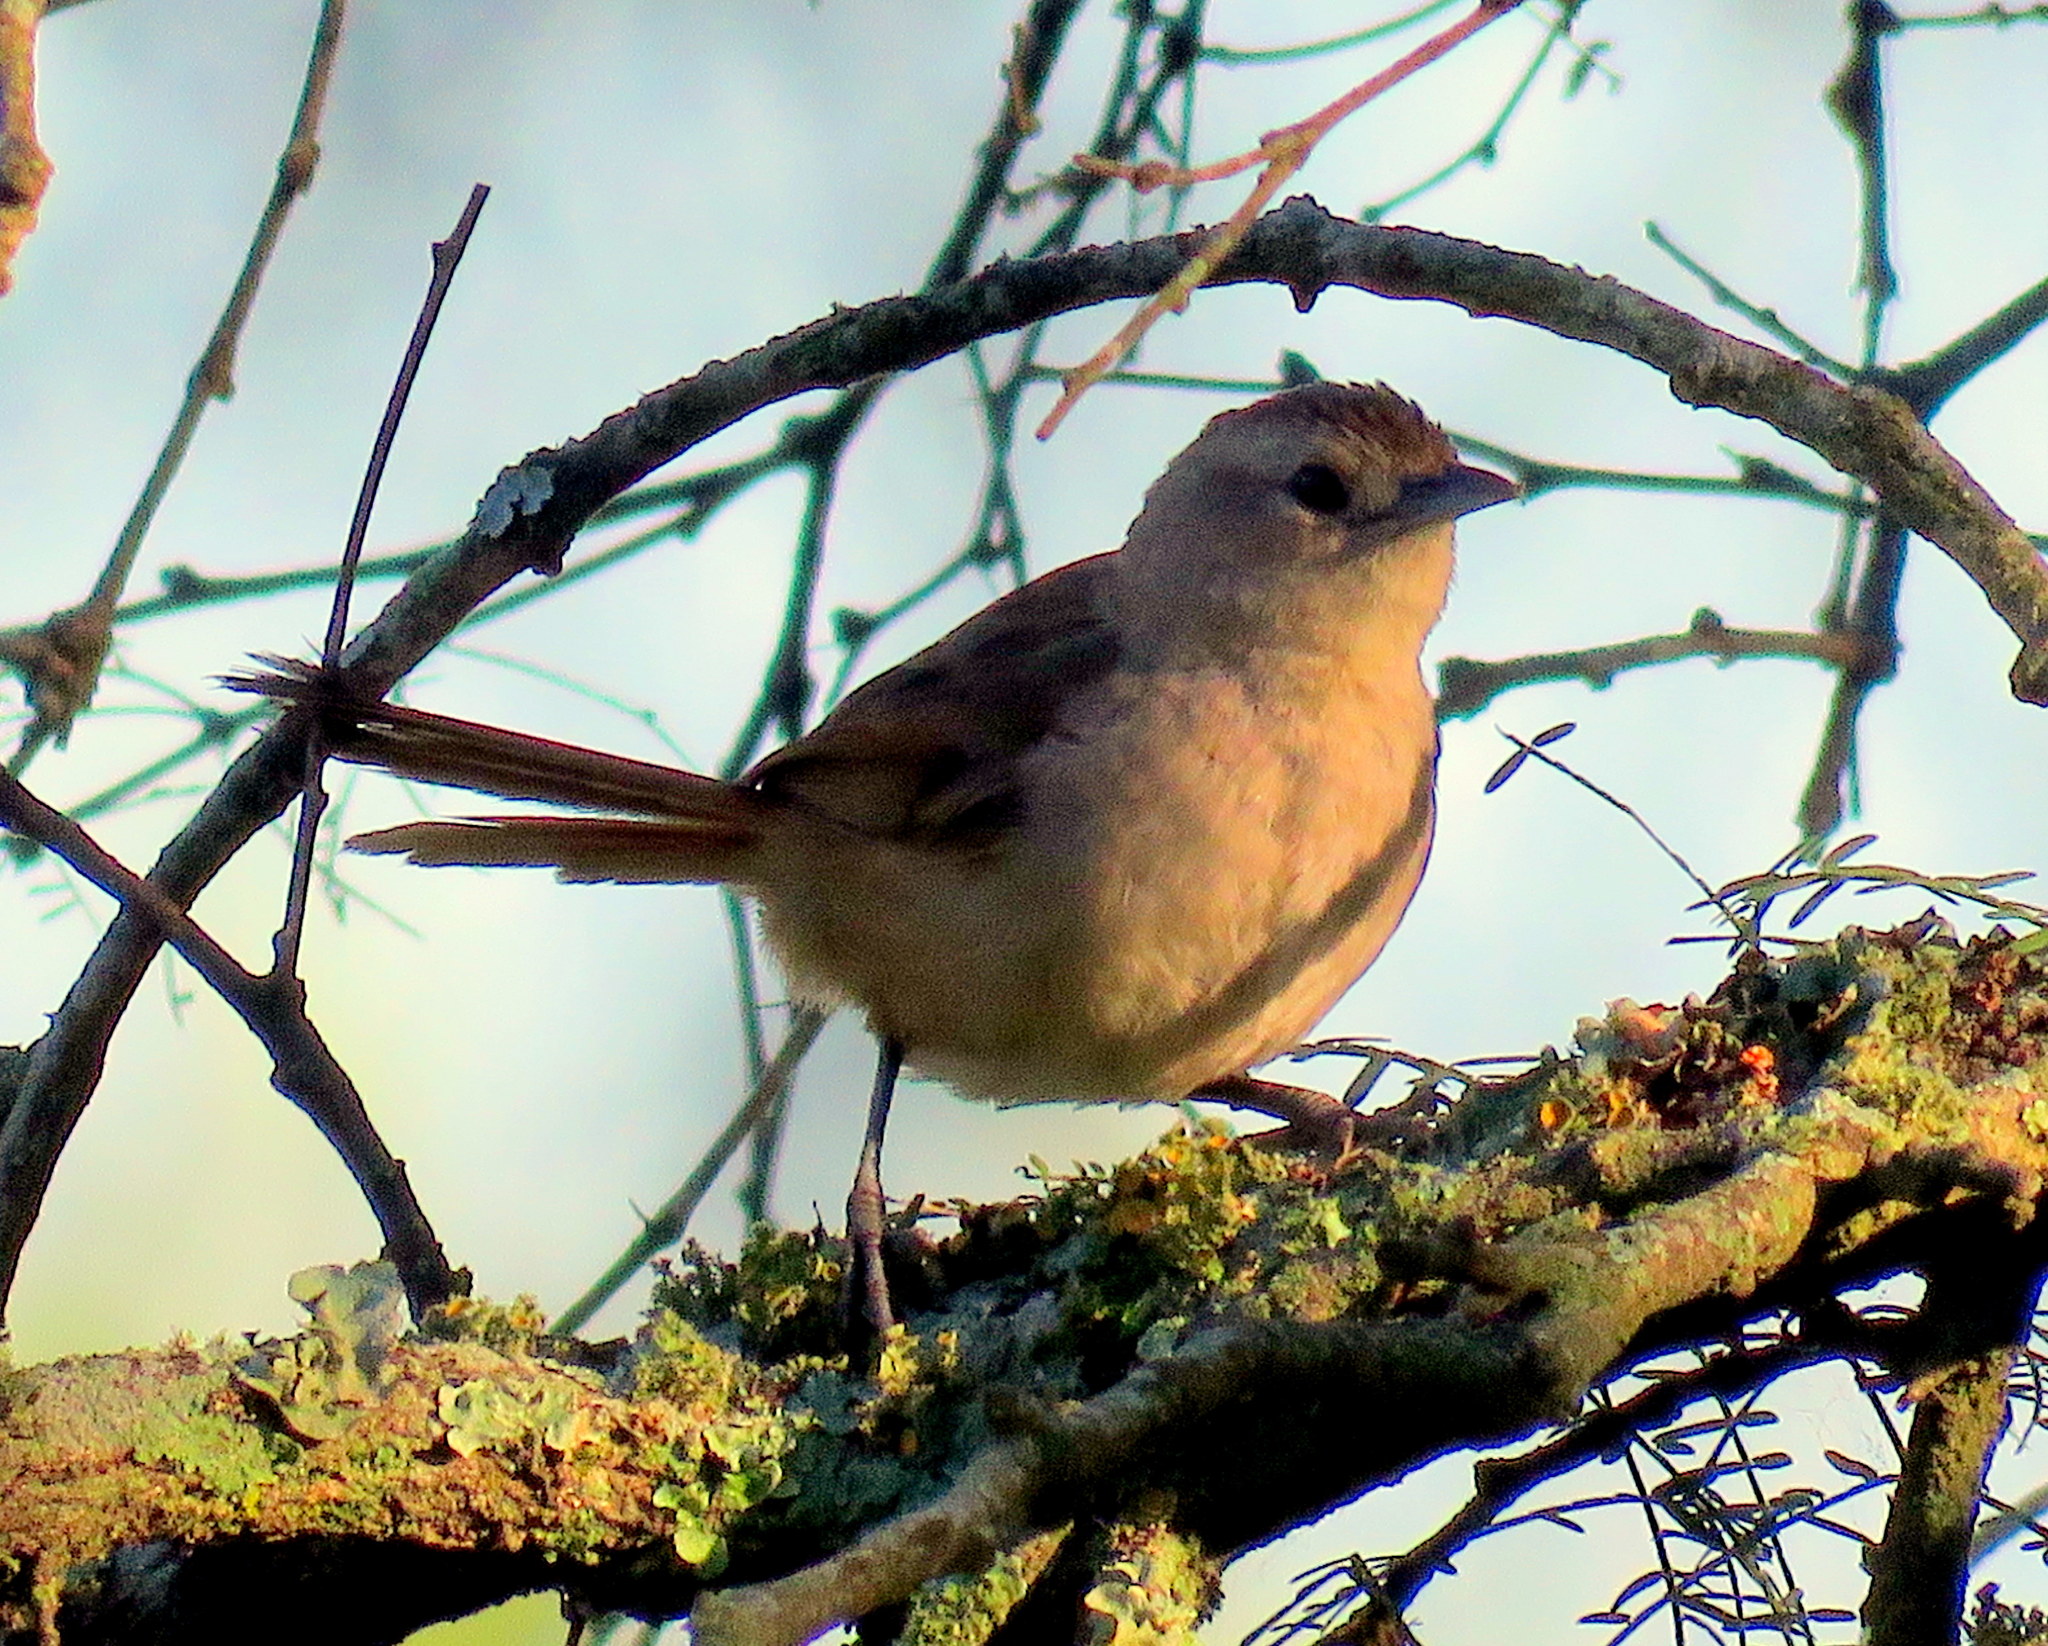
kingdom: Animalia
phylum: Chordata
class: Aves
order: Passeriformes
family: Furnariidae
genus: Phacellodomus
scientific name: Phacellodomus sibilatrix
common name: Little thornbird
